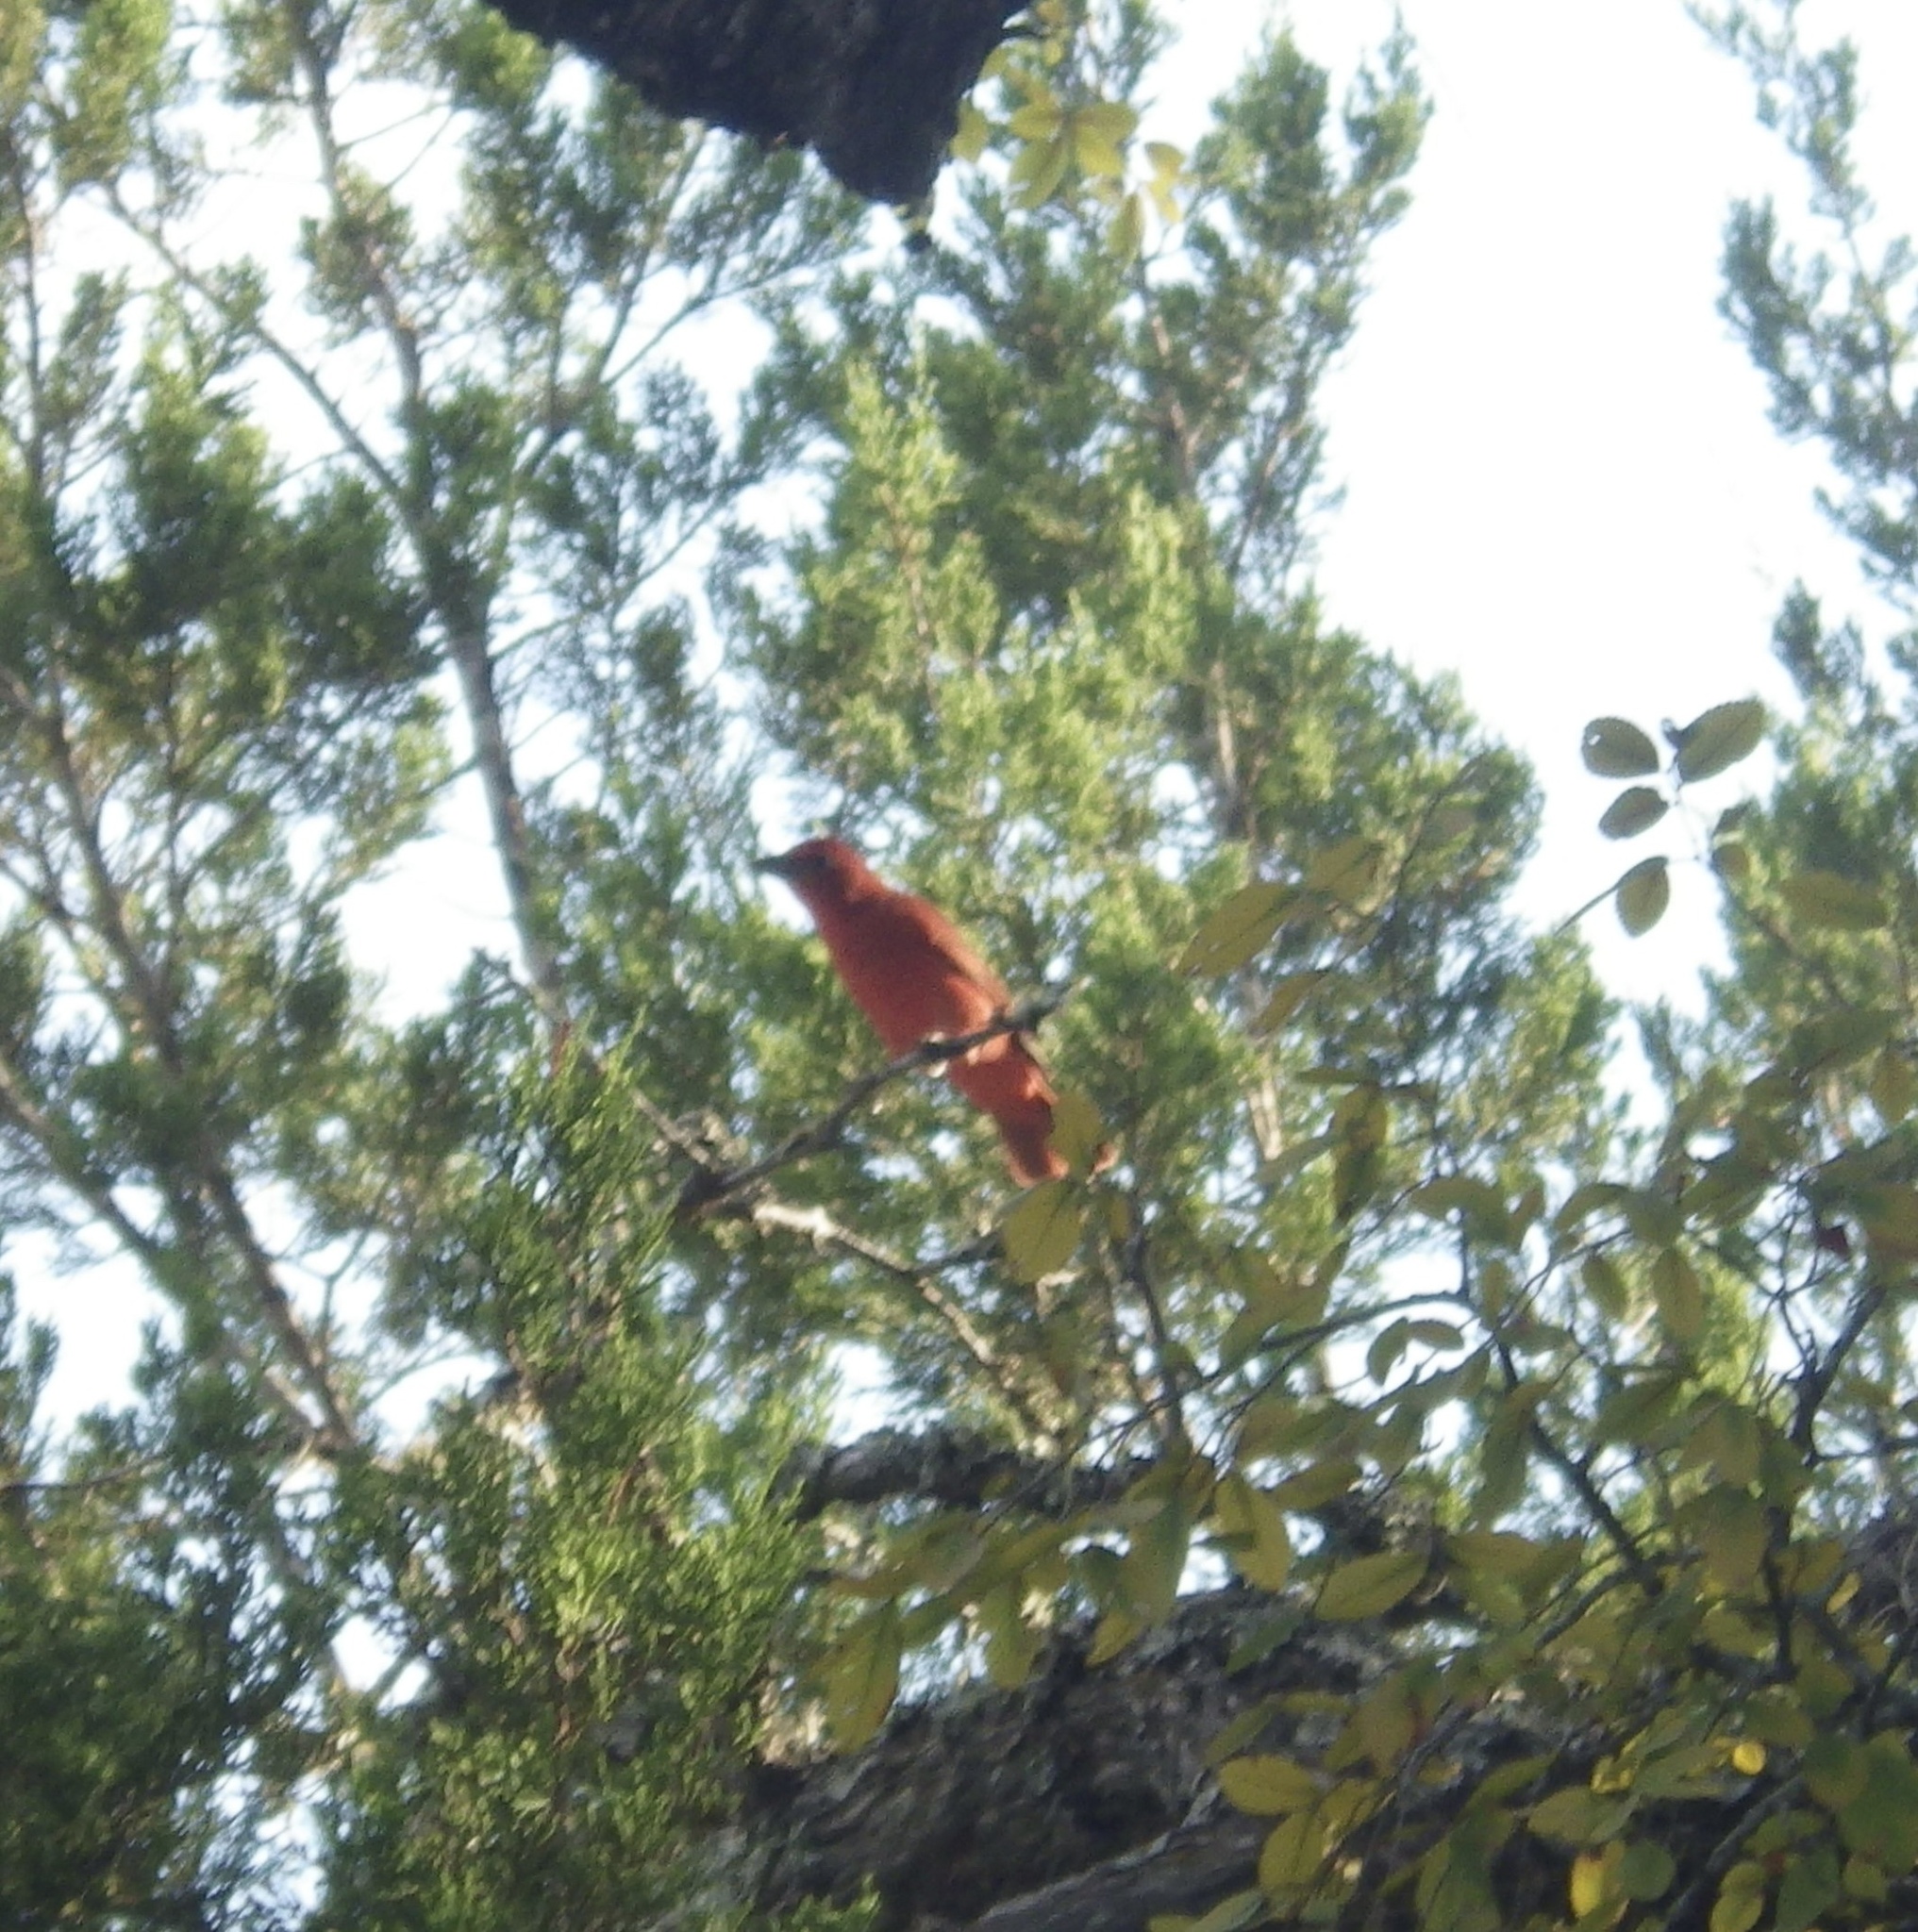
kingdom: Animalia
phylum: Chordata
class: Aves
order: Passeriformes
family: Cardinalidae
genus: Piranga
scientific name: Piranga rubra
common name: Summer tanager
